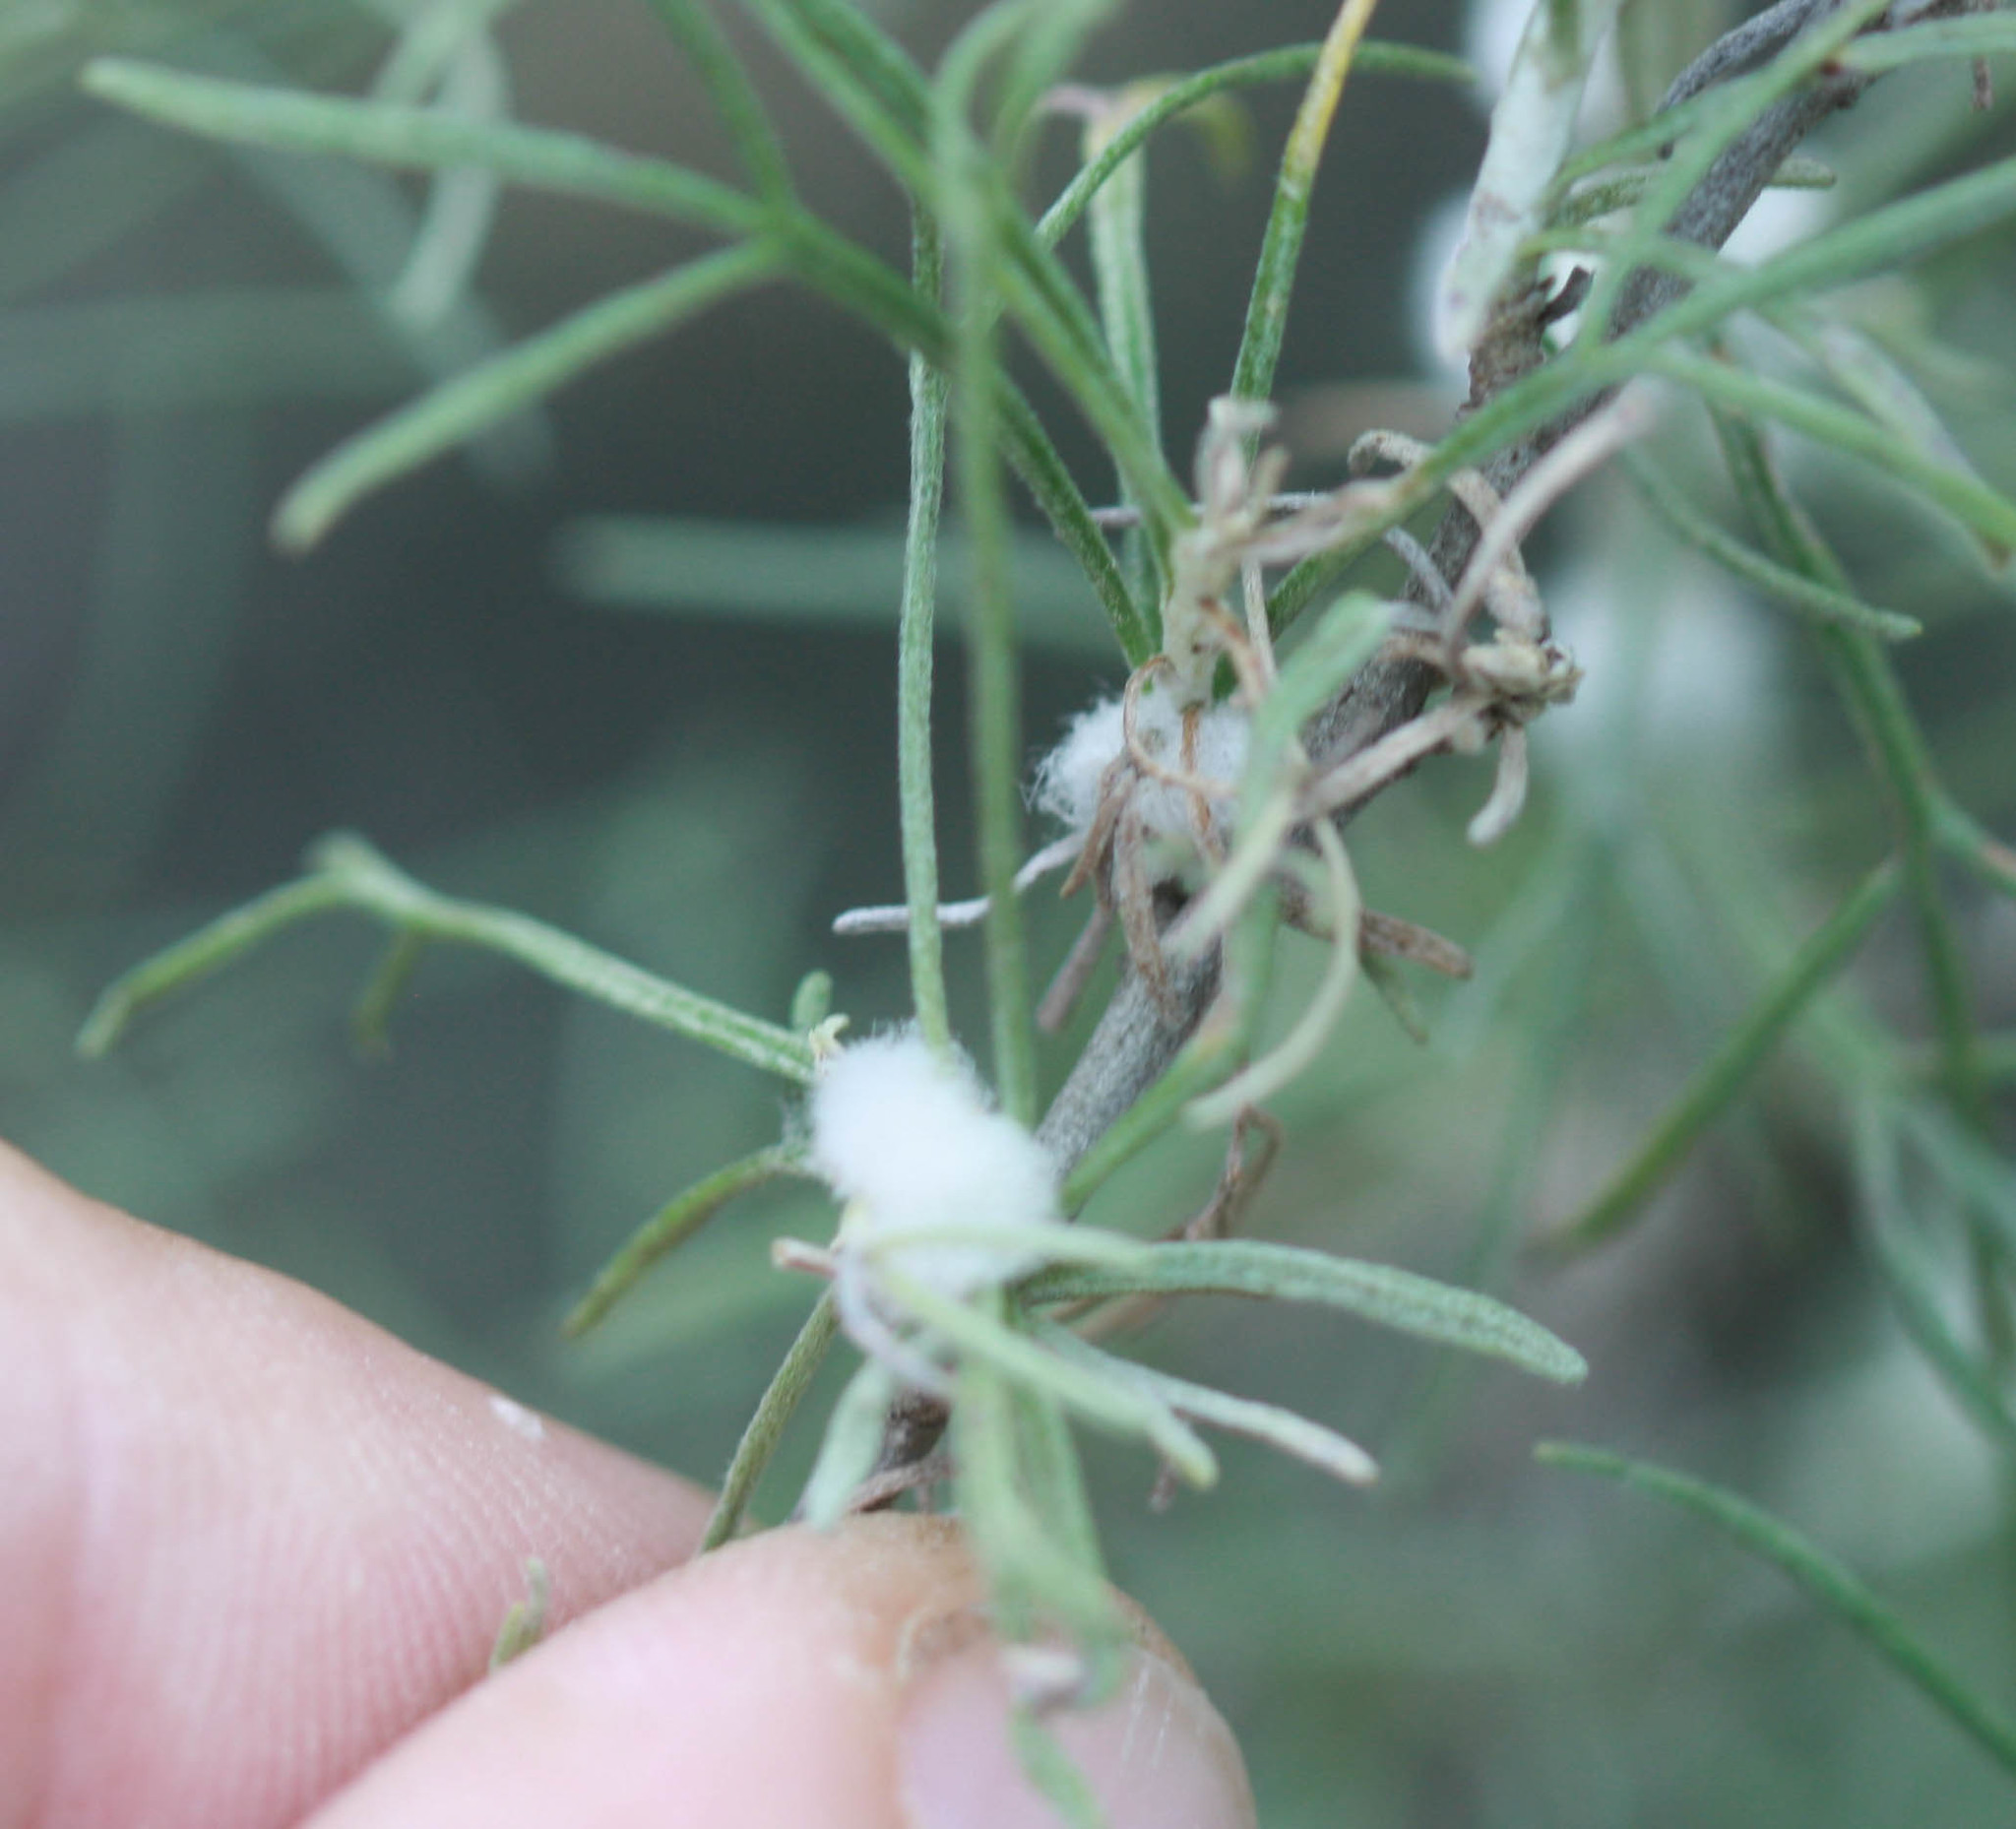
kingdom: Plantae
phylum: Tracheophyta
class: Magnoliopsida
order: Asterales
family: Asteraceae
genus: Artemisia
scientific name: Artemisia californica
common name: California sagebrush
